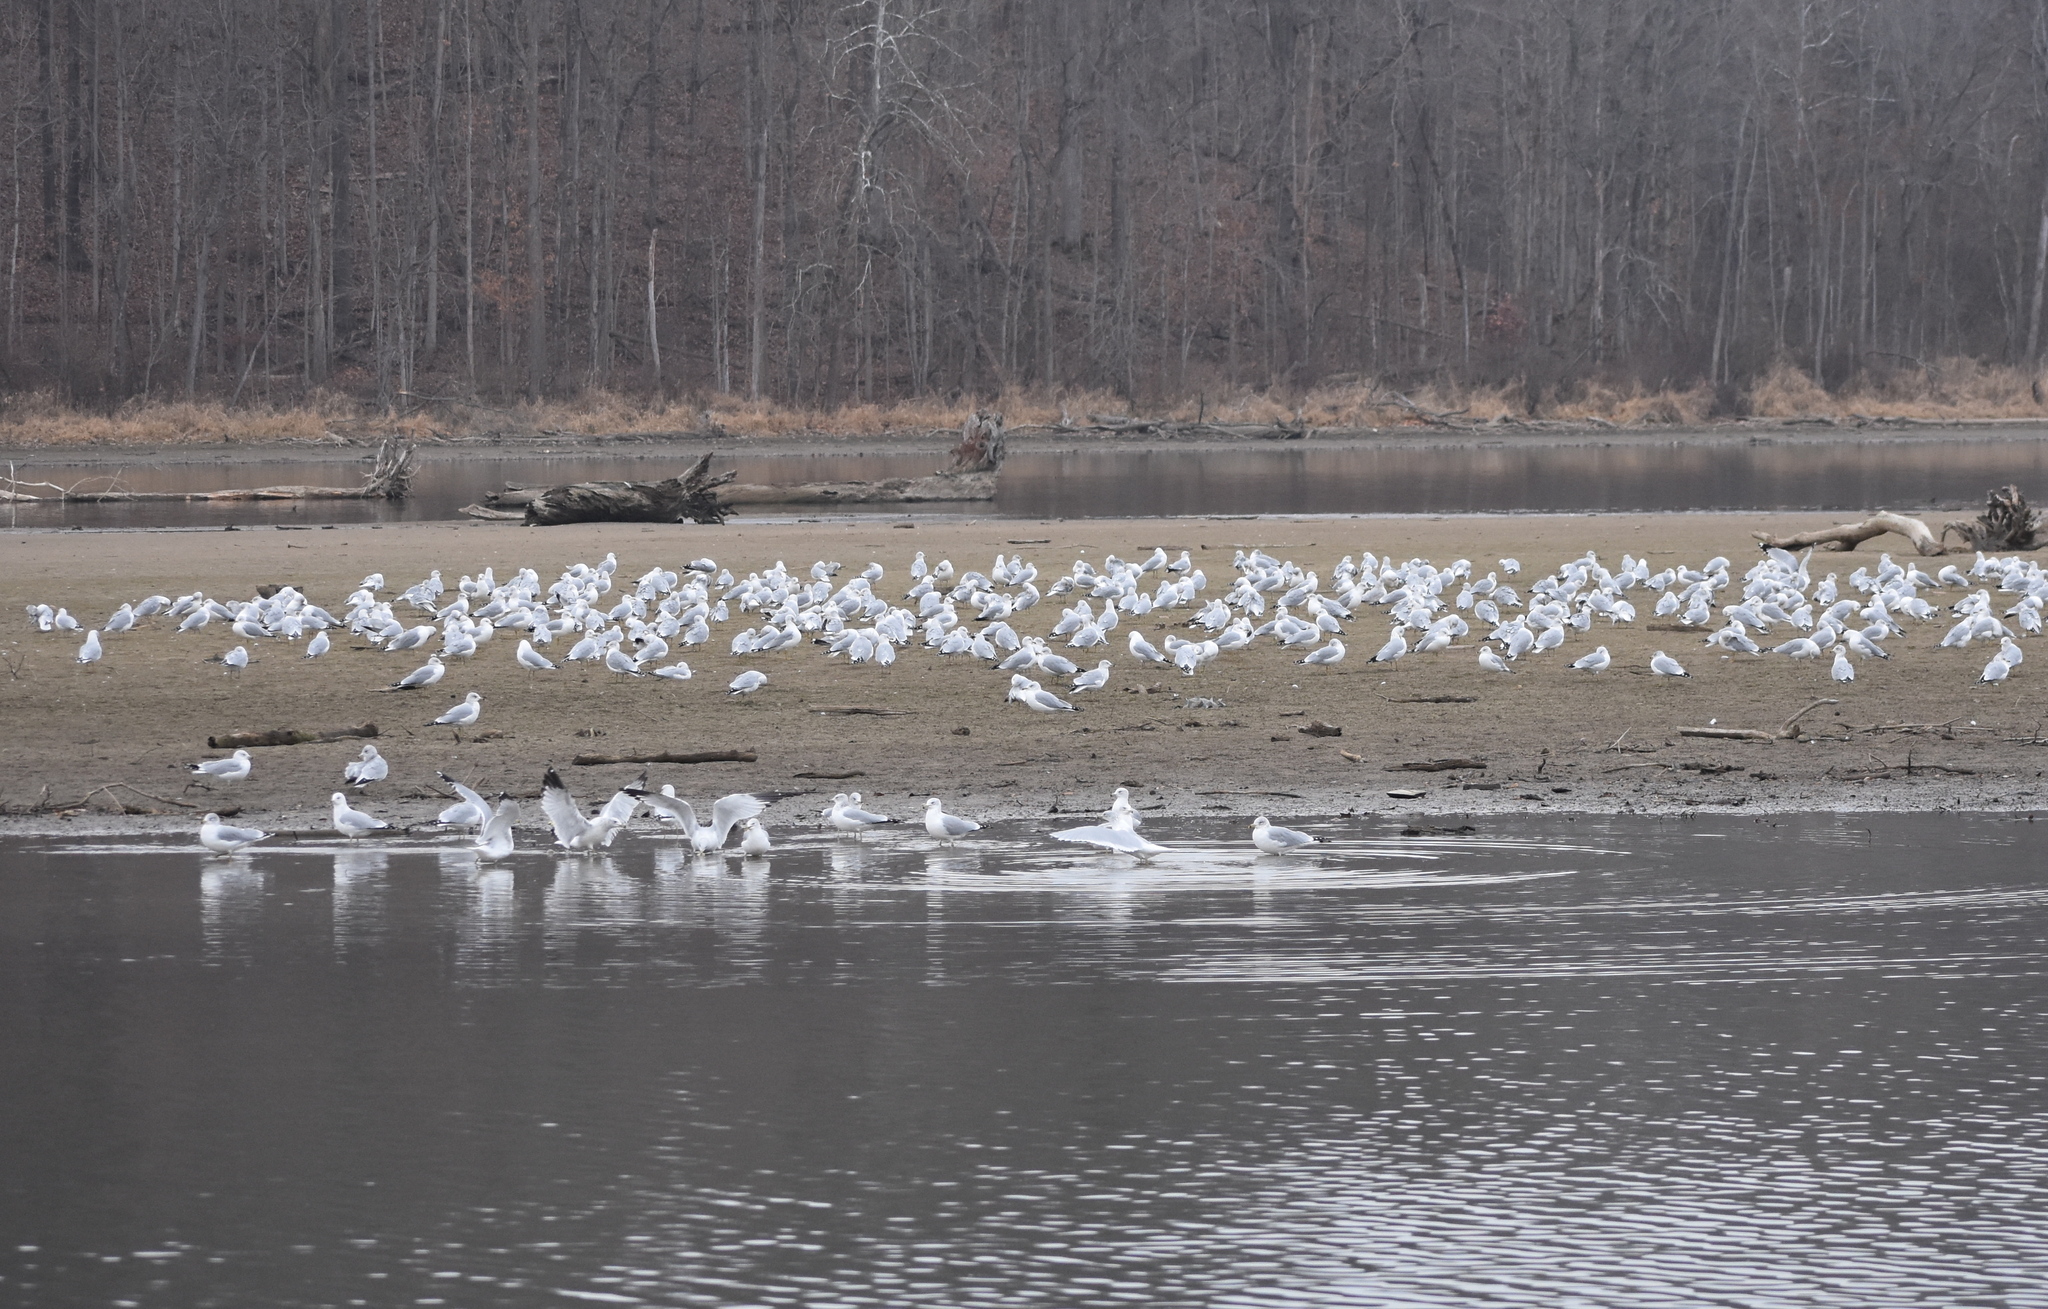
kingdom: Animalia
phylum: Chordata
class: Aves
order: Charadriiformes
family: Laridae
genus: Larus
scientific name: Larus delawarensis
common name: Ring-billed gull
